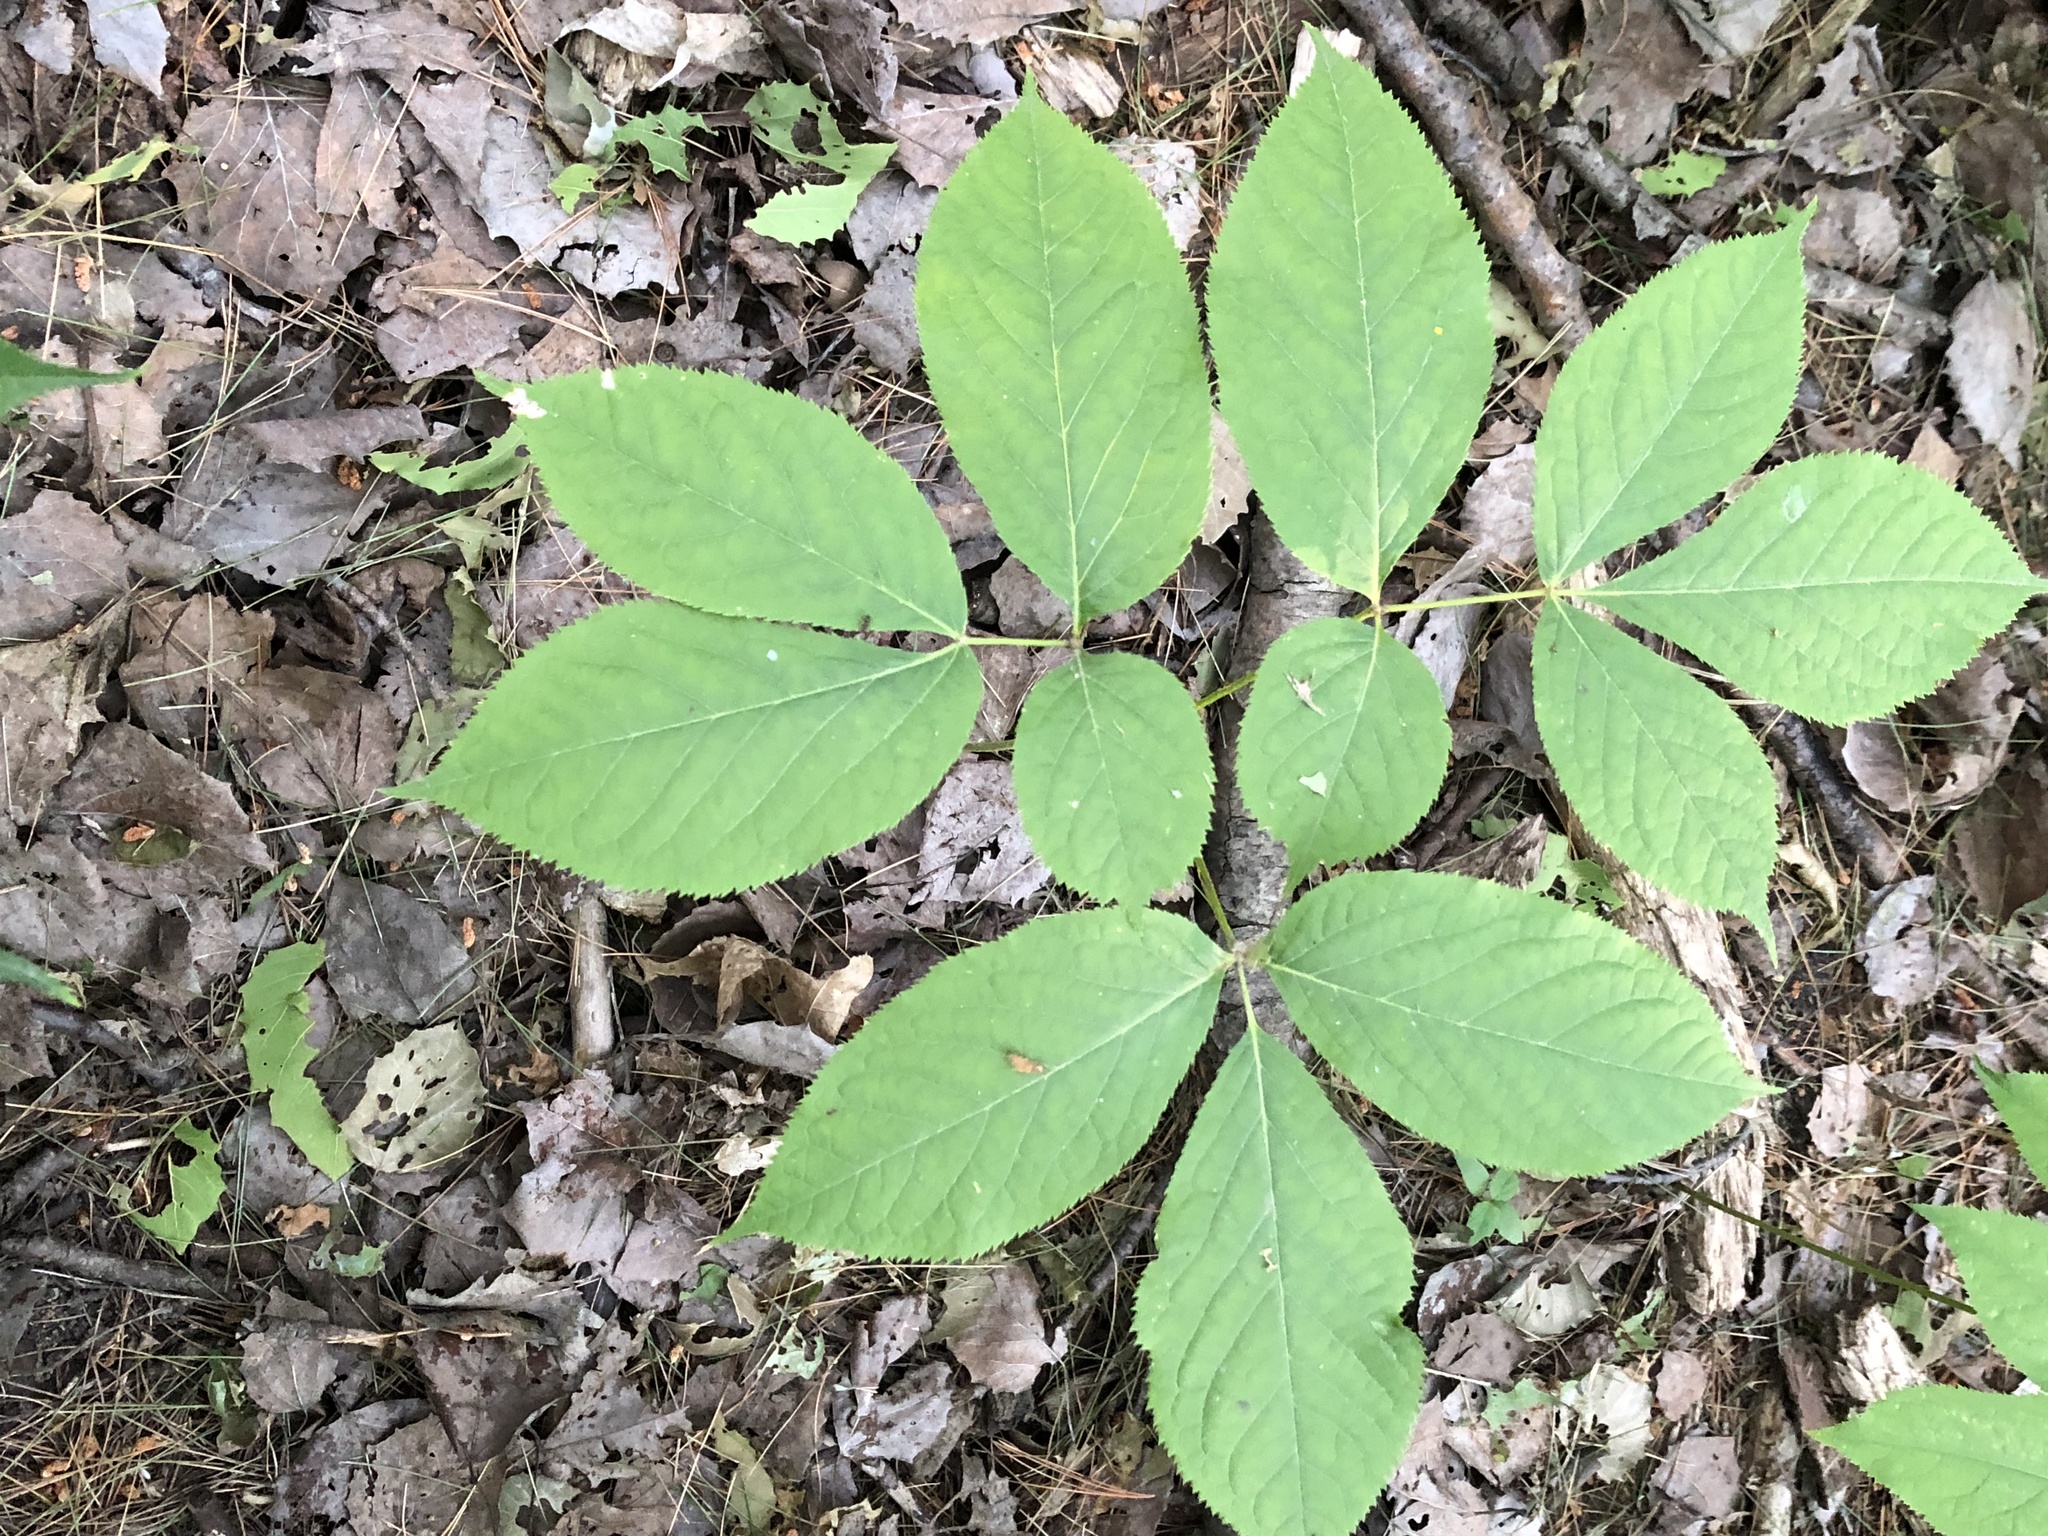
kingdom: Plantae
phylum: Tracheophyta
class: Magnoliopsida
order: Apiales
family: Araliaceae
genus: Aralia
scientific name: Aralia nudicaulis
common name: Wild sarsaparilla
